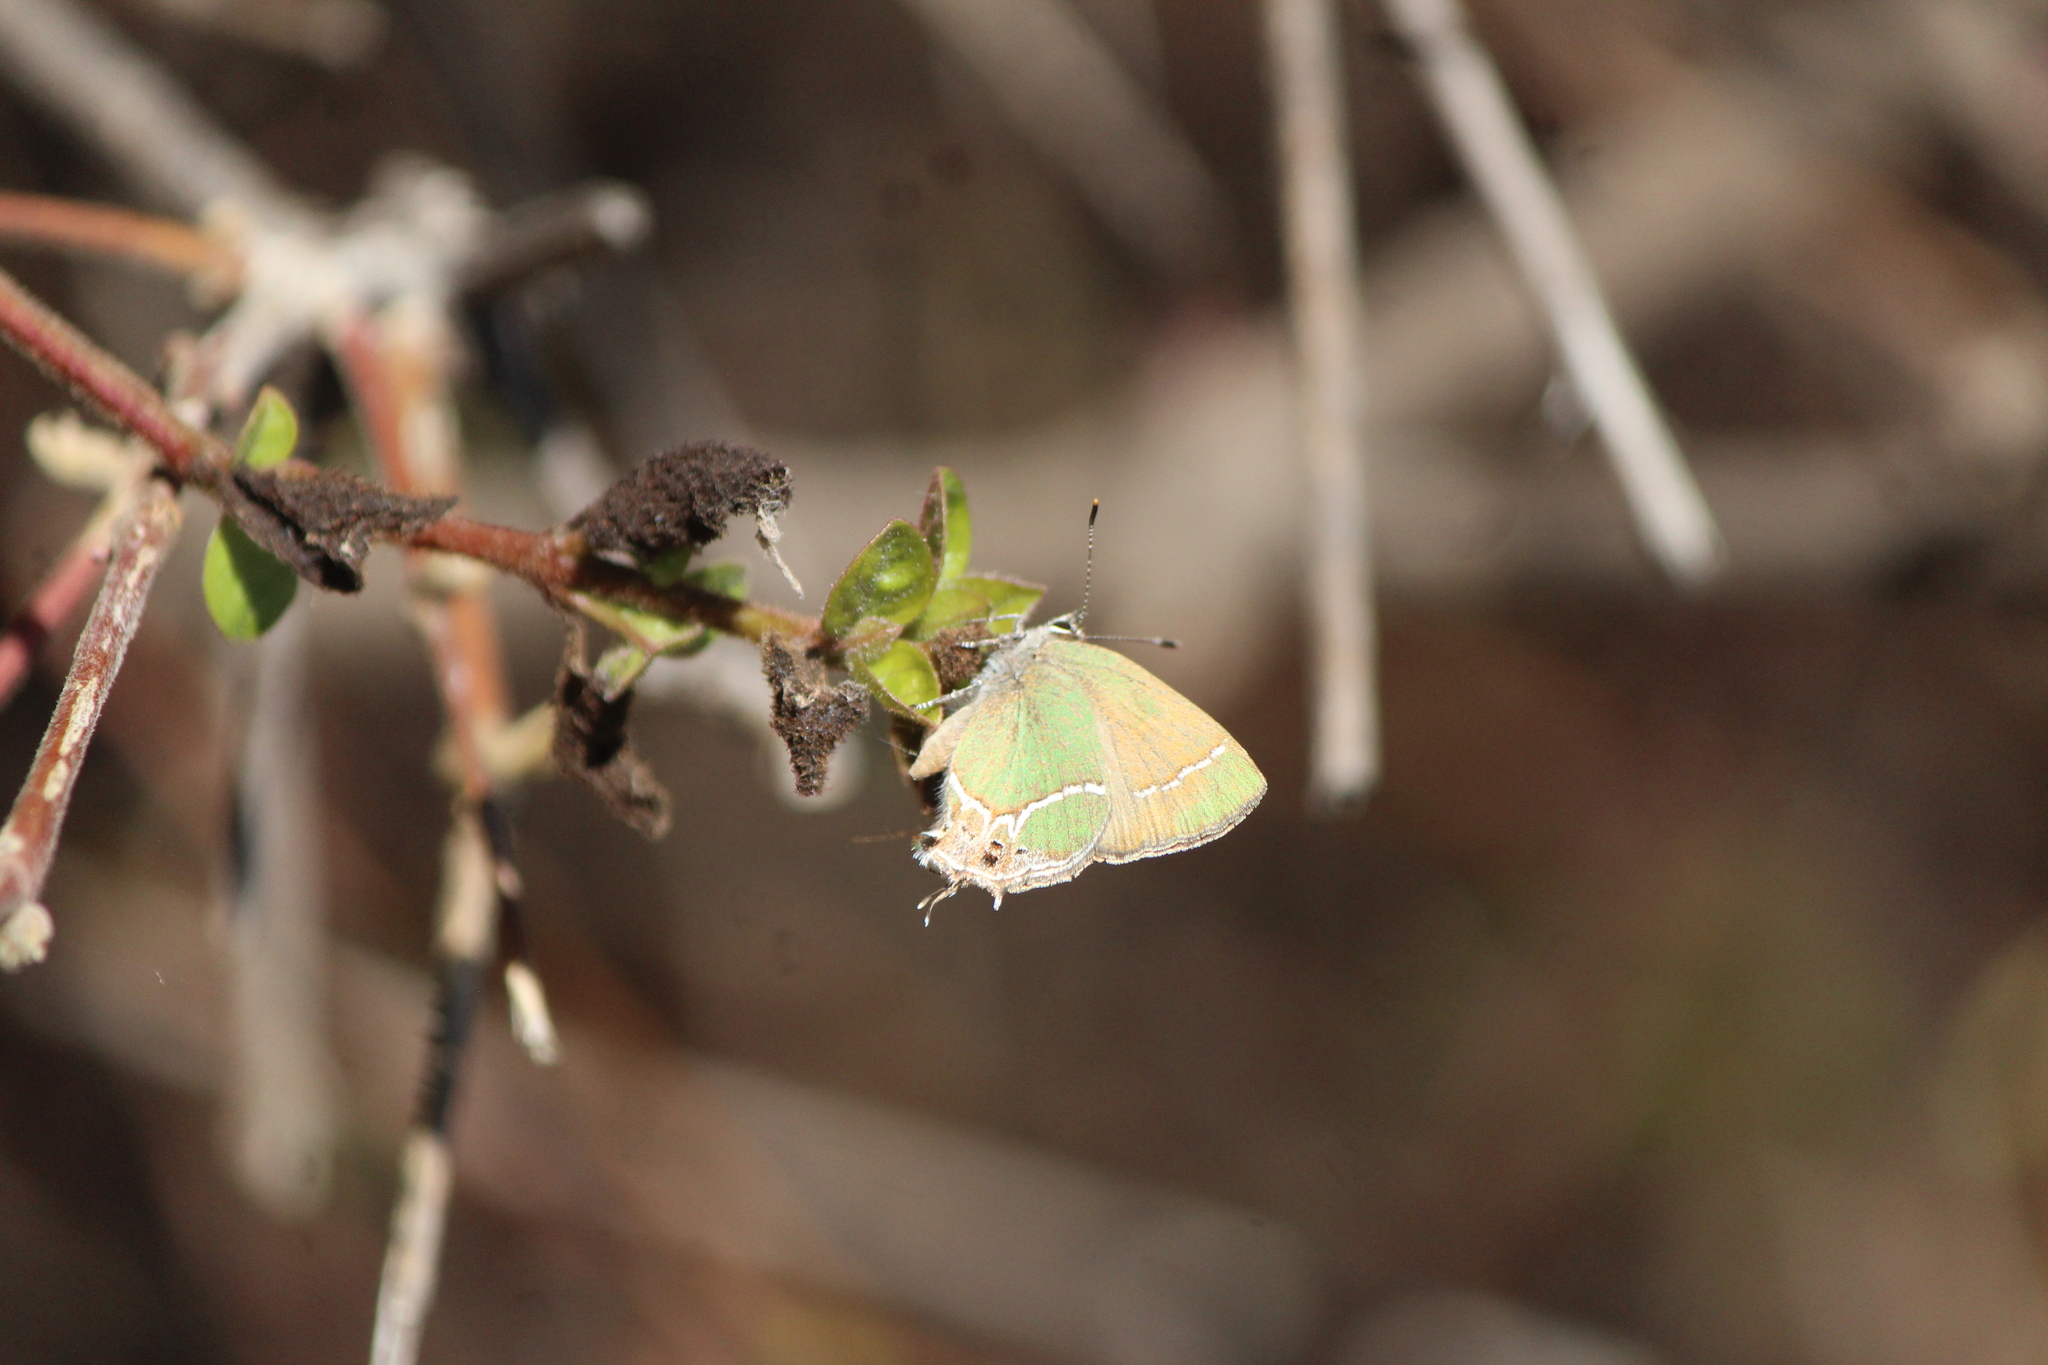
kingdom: Animalia
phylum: Arthropoda
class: Insecta
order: Lepidoptera
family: Lycaenidae
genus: Xamia
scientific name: Xamia xami
